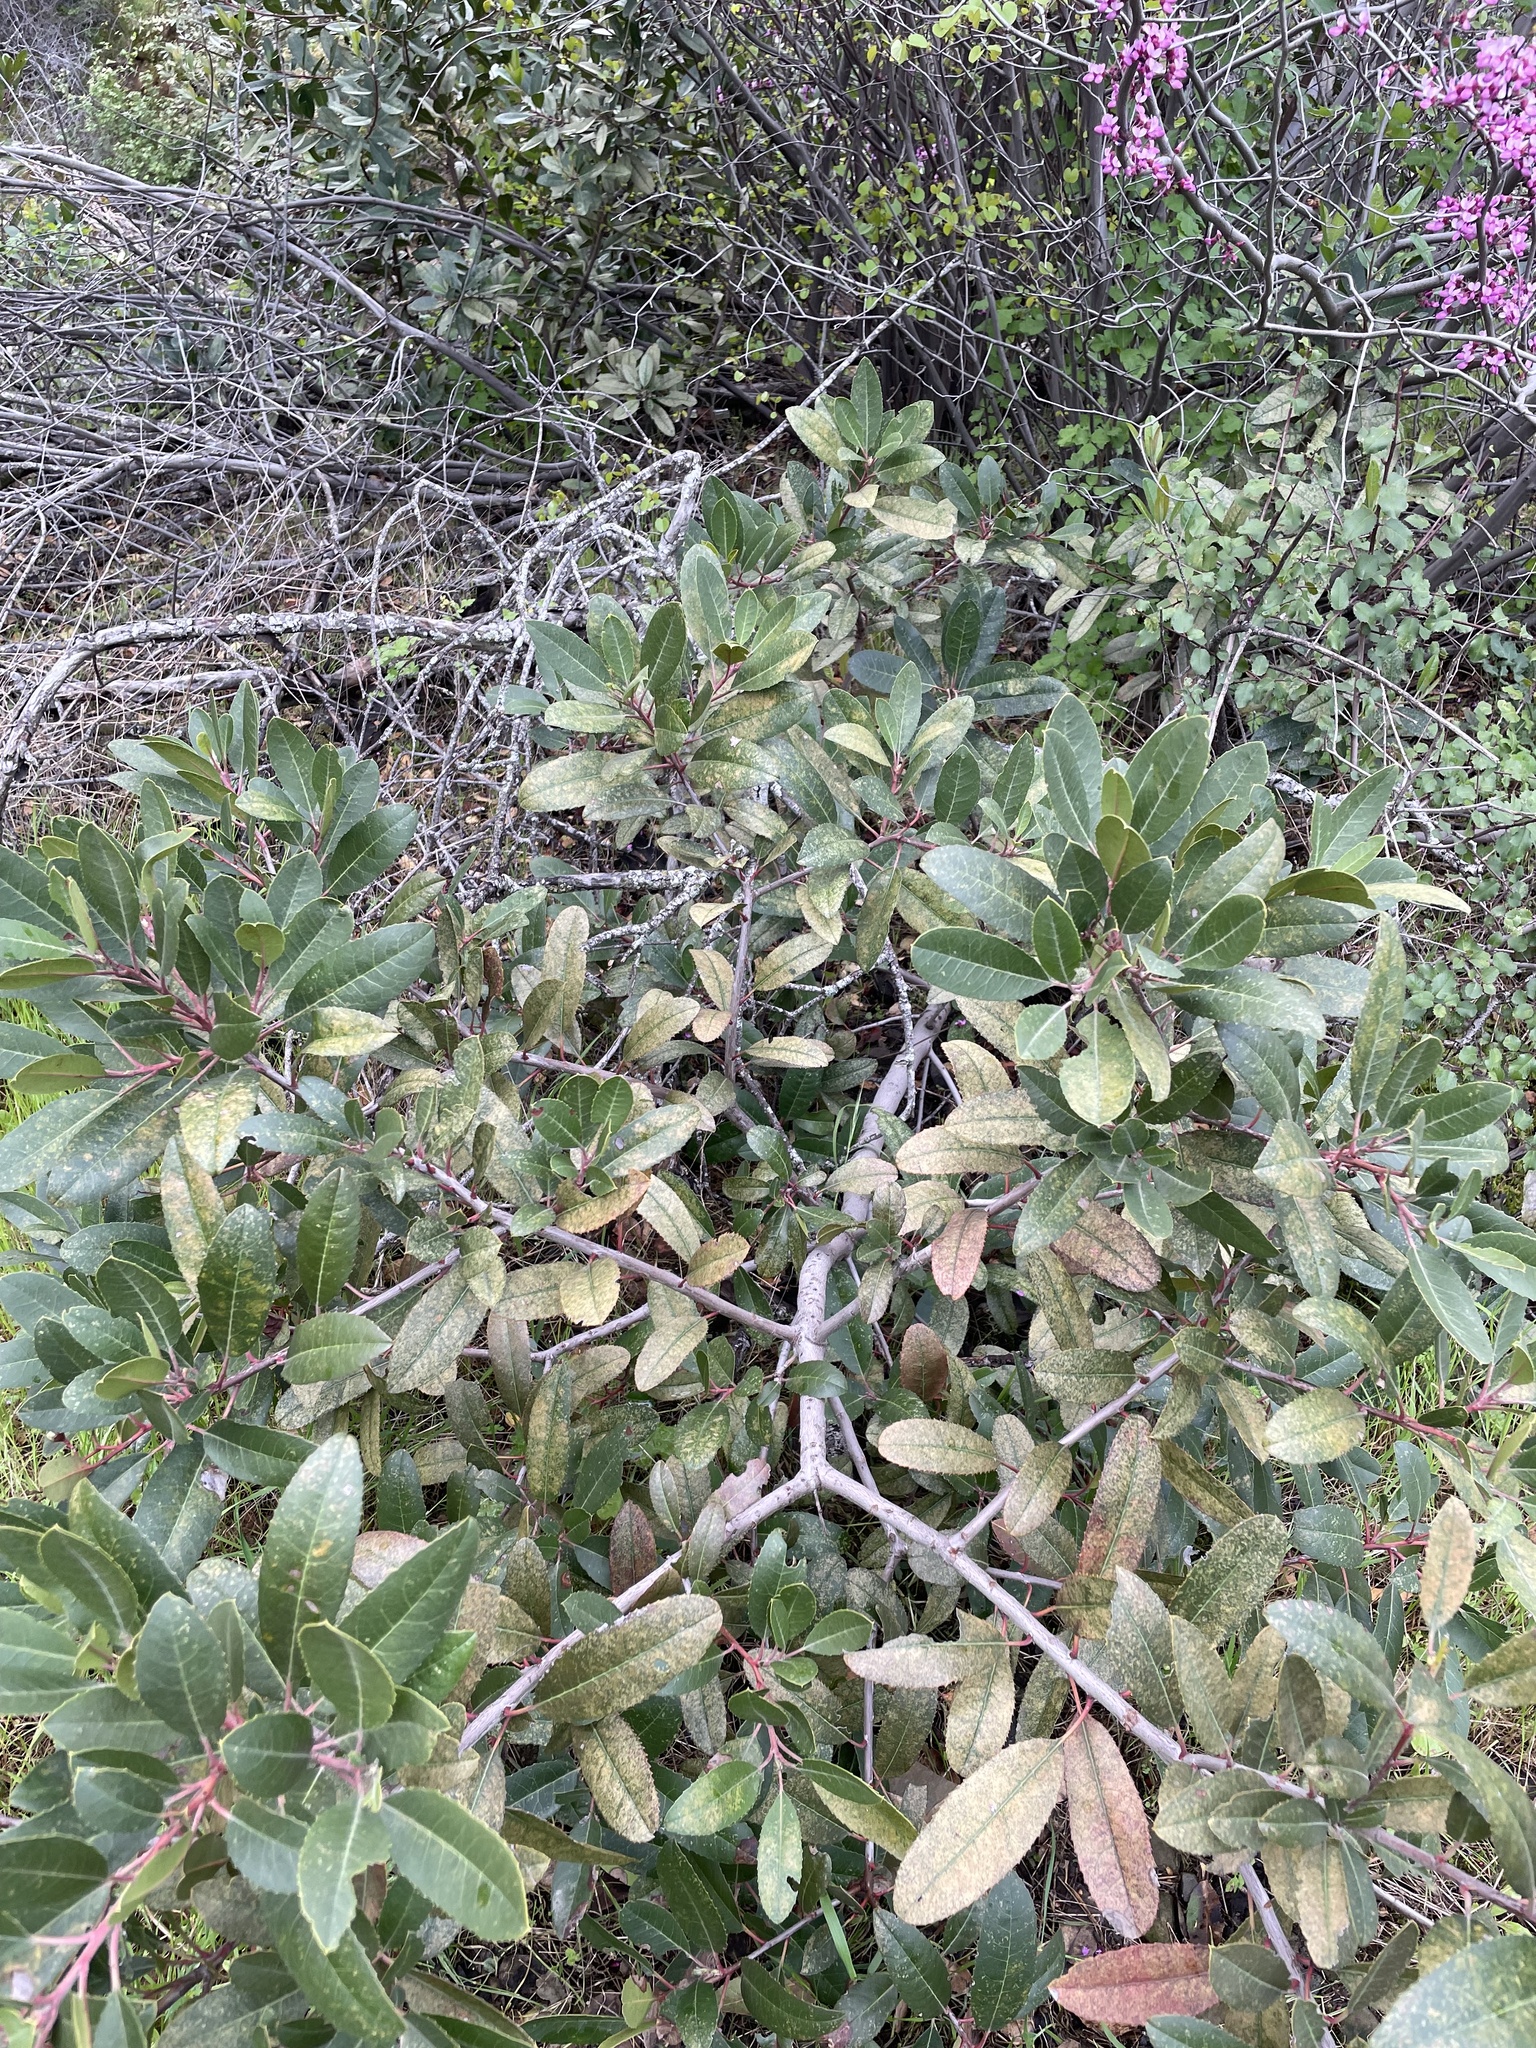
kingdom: Plantae
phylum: Tracheophyta
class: Magnoliopsida
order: Rosales
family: Rosaceae
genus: Heteromeles
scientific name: Heteromeles arbutifolia
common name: California-holly
